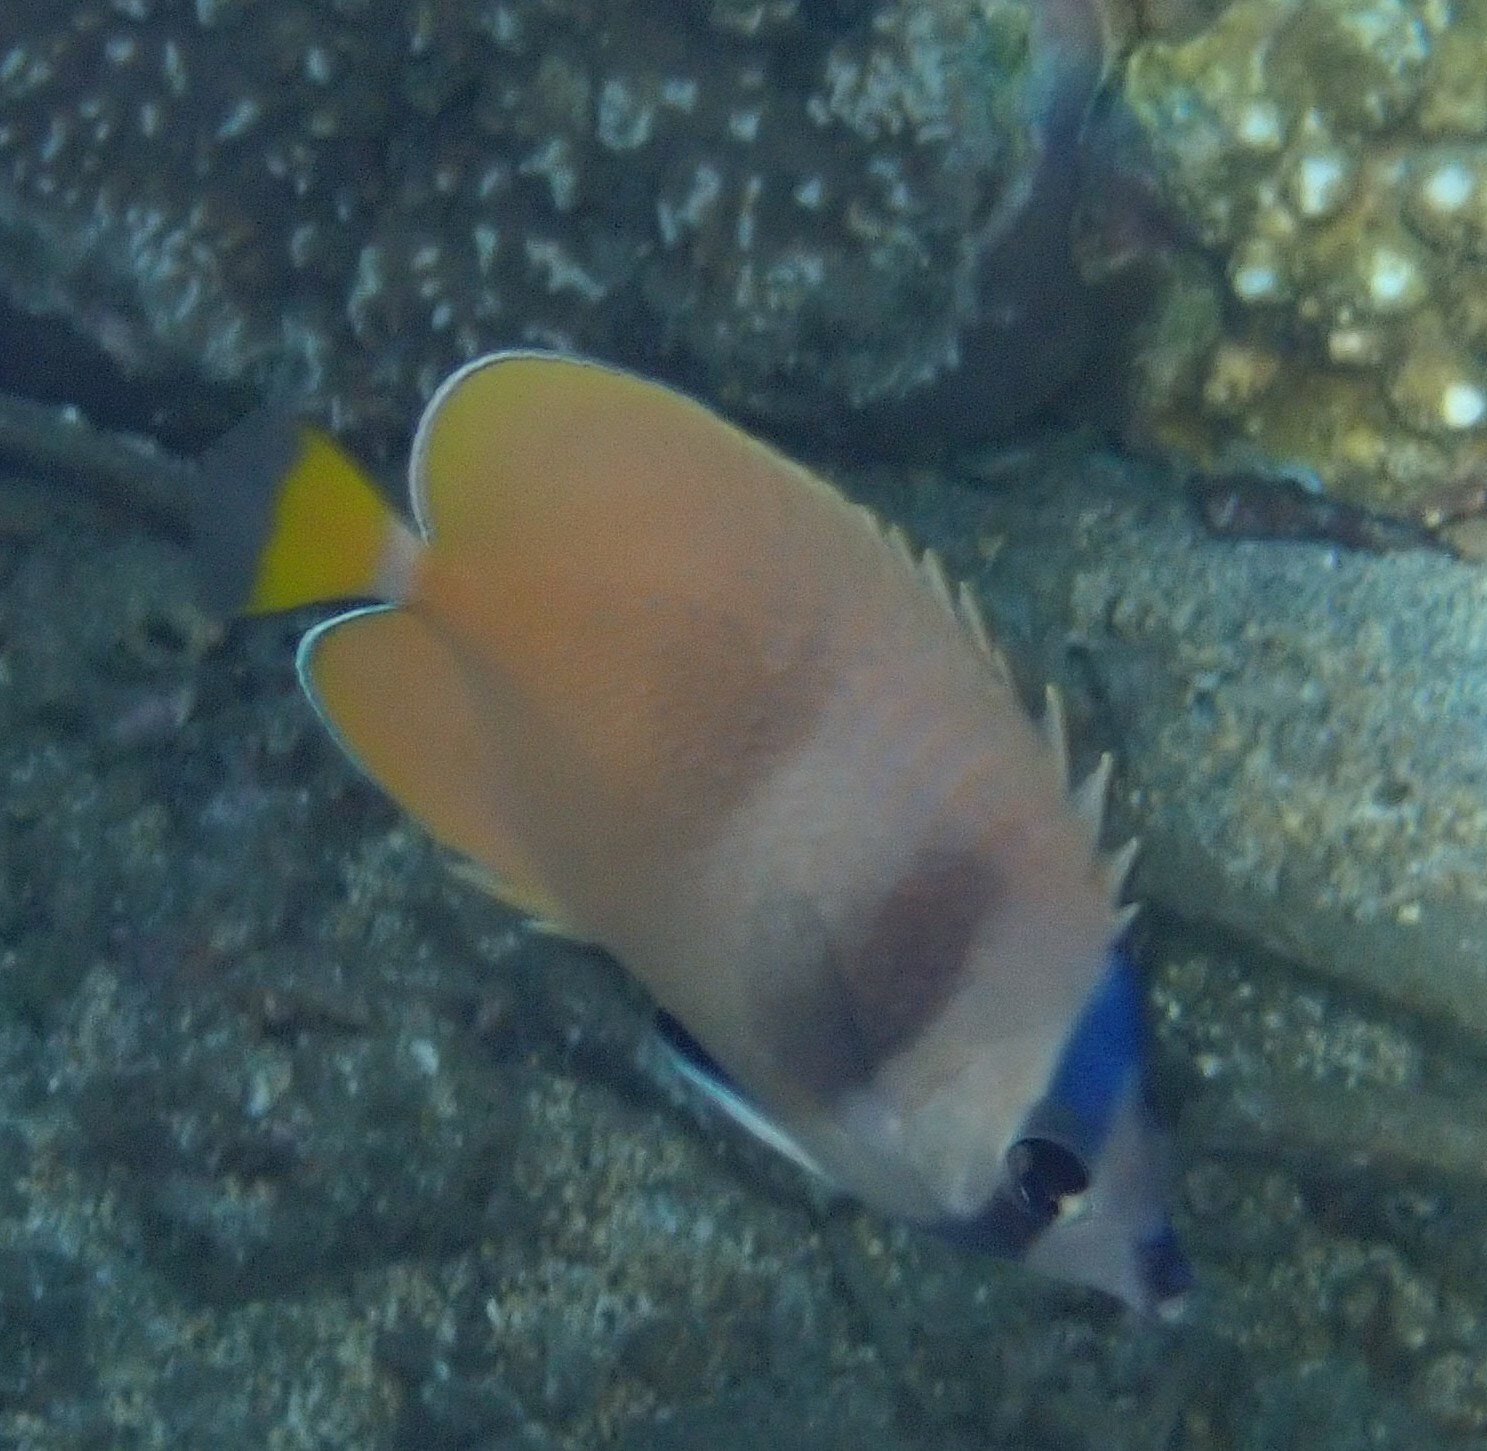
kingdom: Animalia
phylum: Chordata
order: Perciformes
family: Chaetodontidae
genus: Chaetodon
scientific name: Chaetodon kleinii
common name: Klein's butterflyfish
